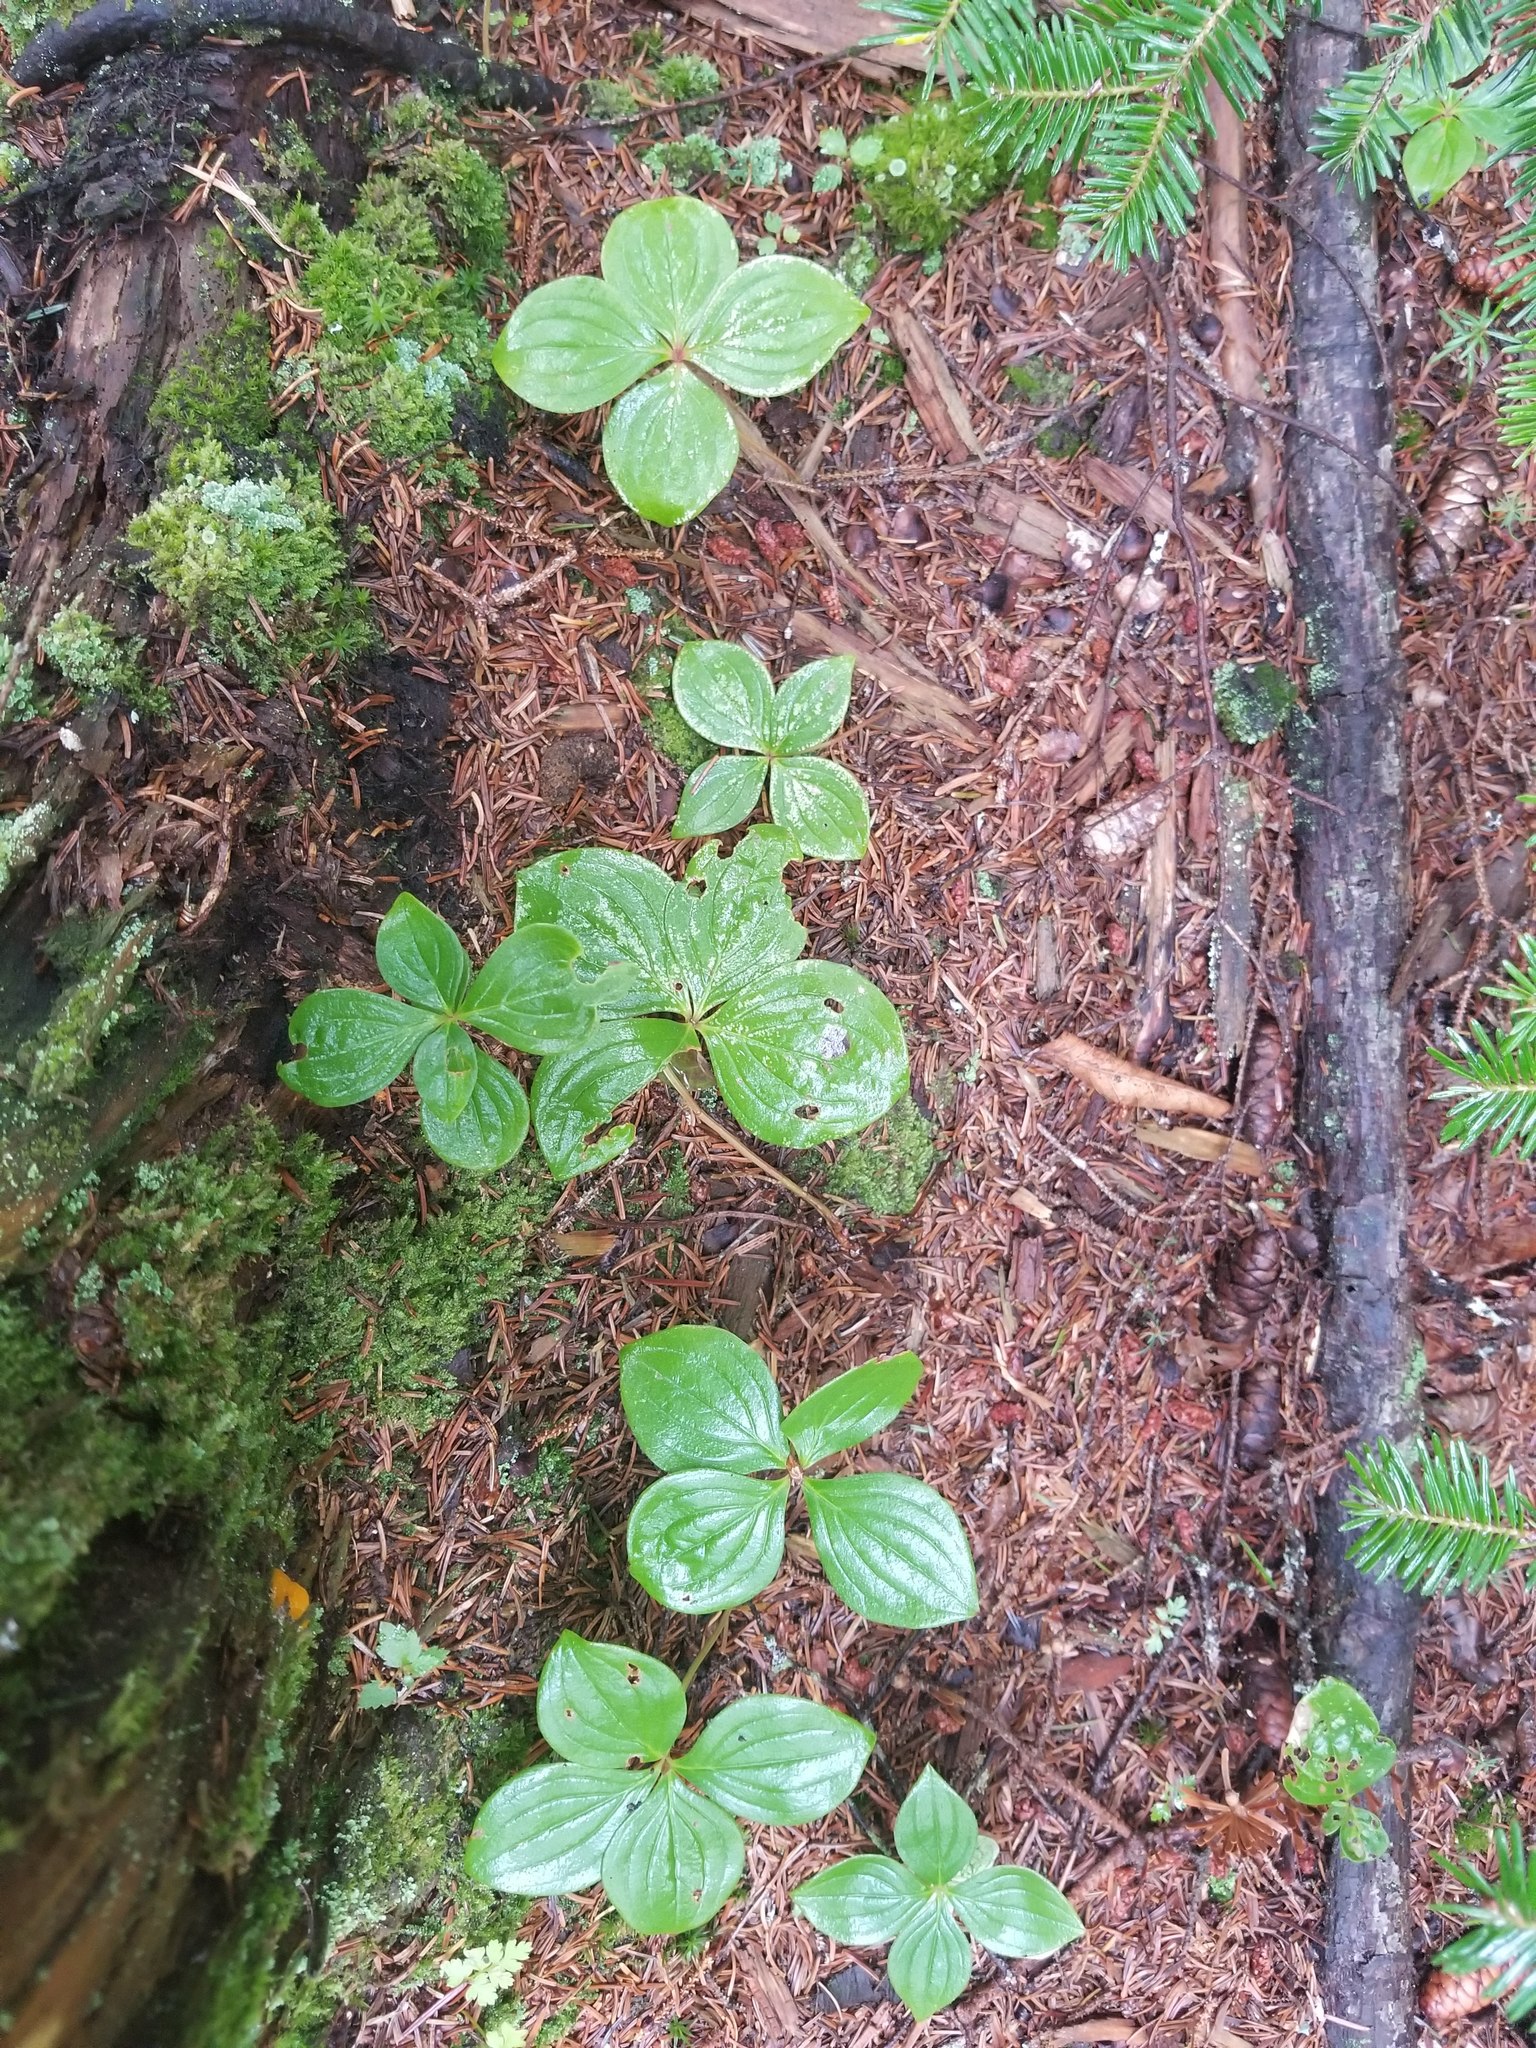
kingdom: Plantae
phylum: Tracheophyta
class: Magnoliopsida
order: Cornales
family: Cornaceae
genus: Cornus
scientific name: Cornus canadensis
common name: Creeping dogwood
